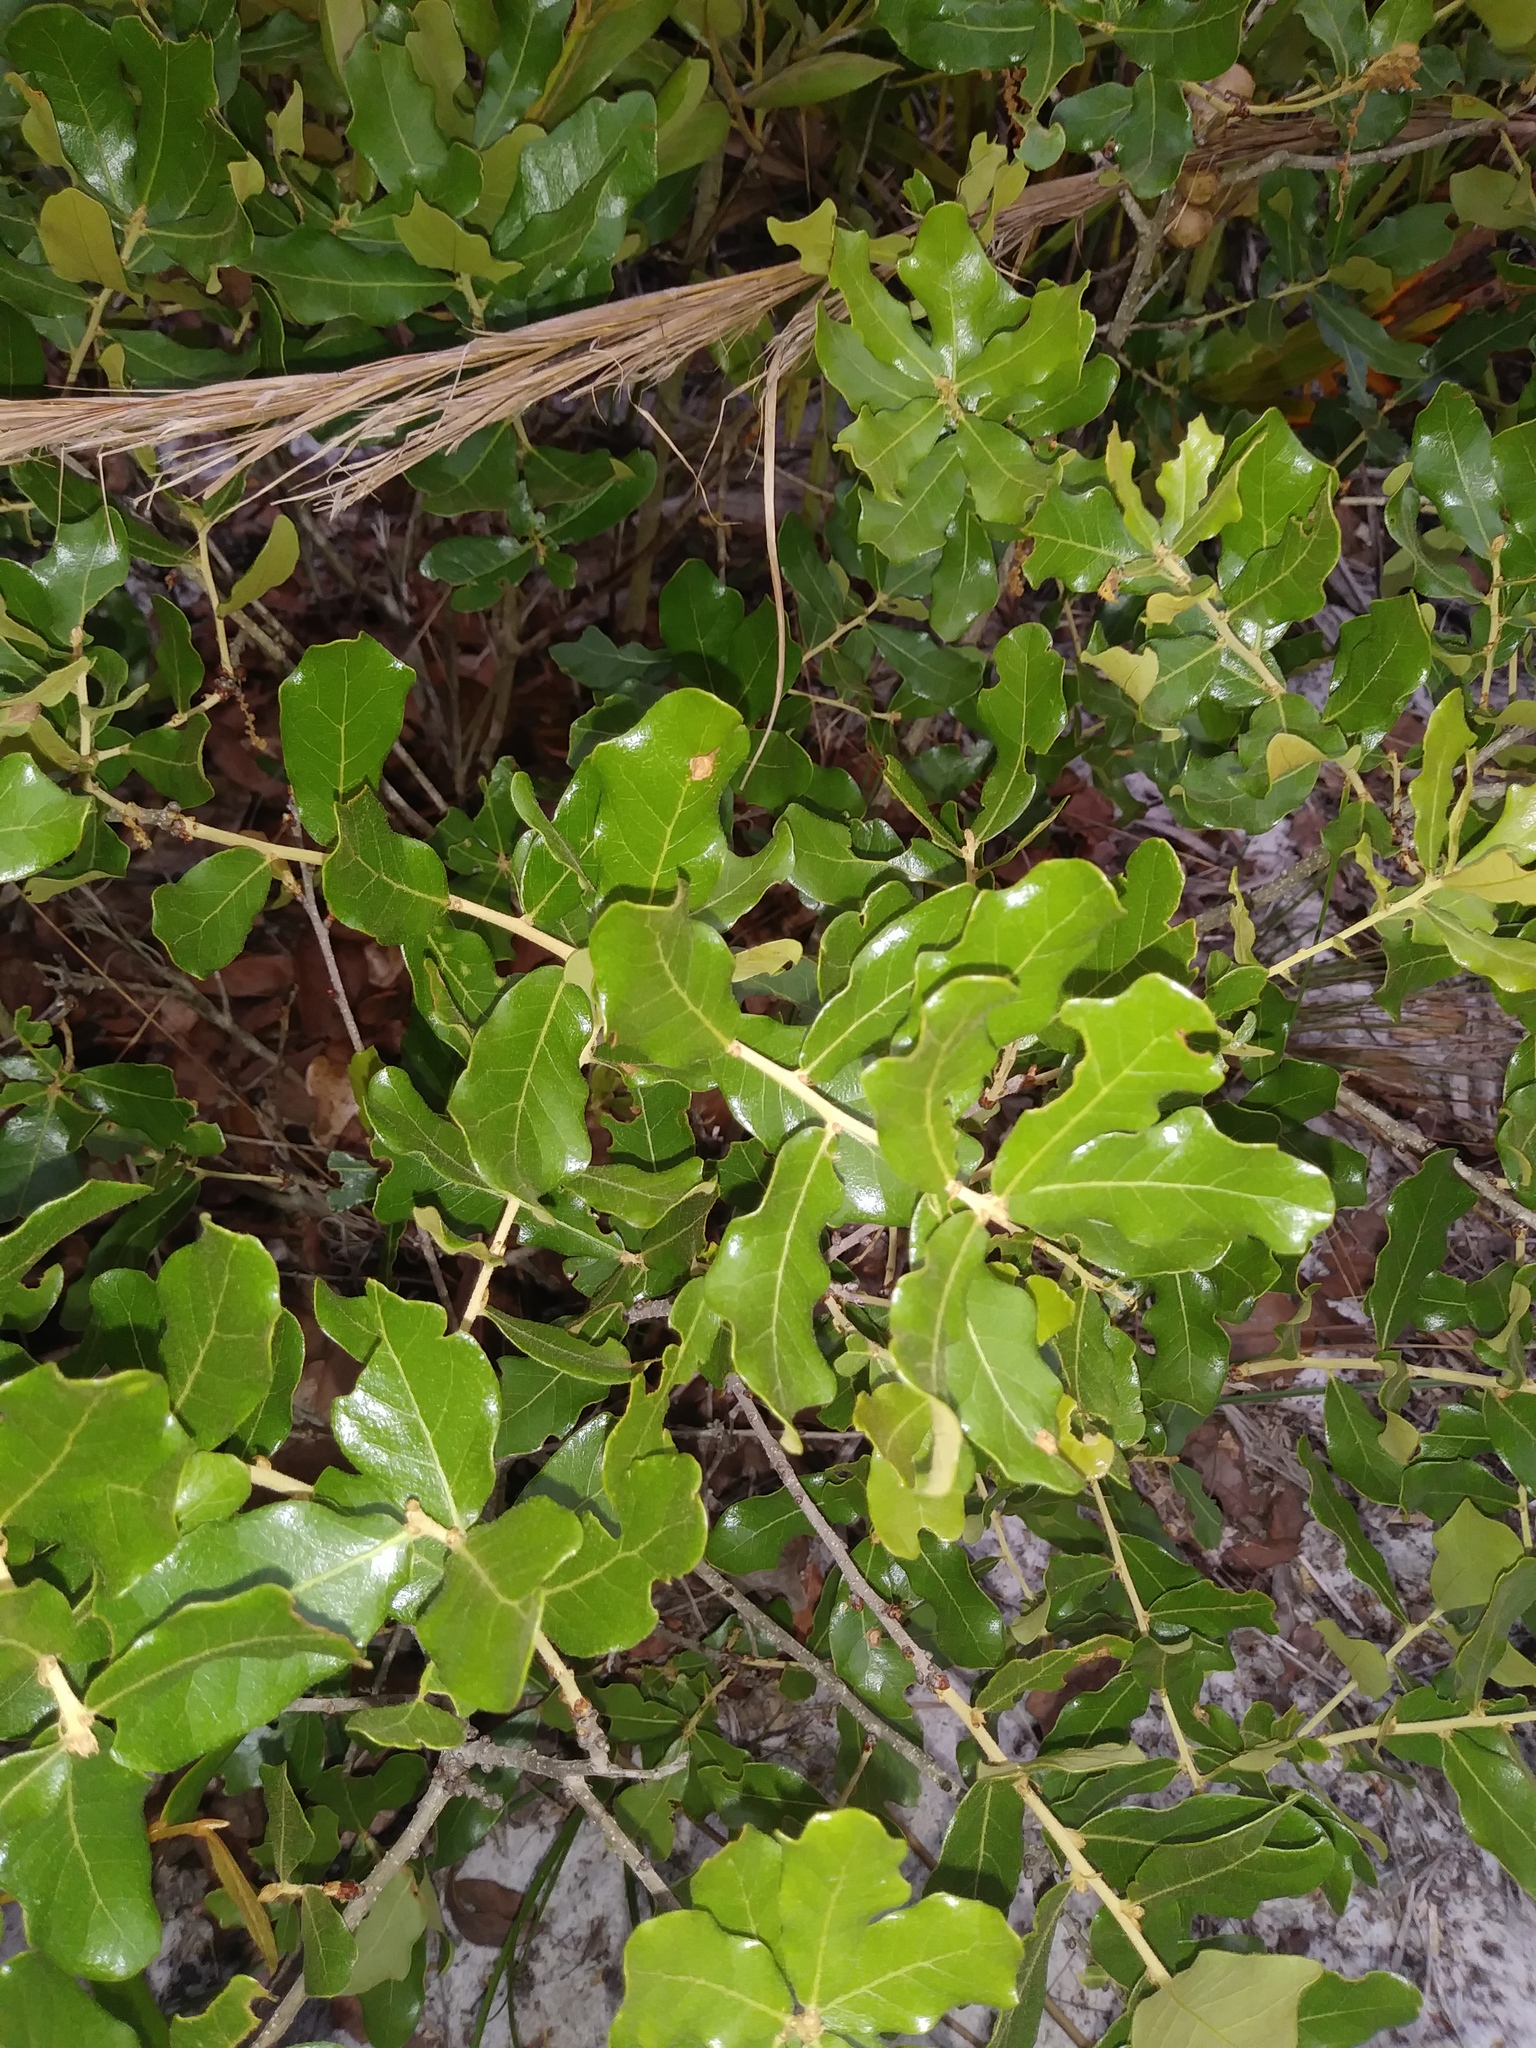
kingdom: Plantae
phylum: Tracheophyta
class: Magnoliopsida
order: Fagales
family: Fagaceae
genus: Quercus
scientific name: Quercus chapmanii
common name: Chapman oak
